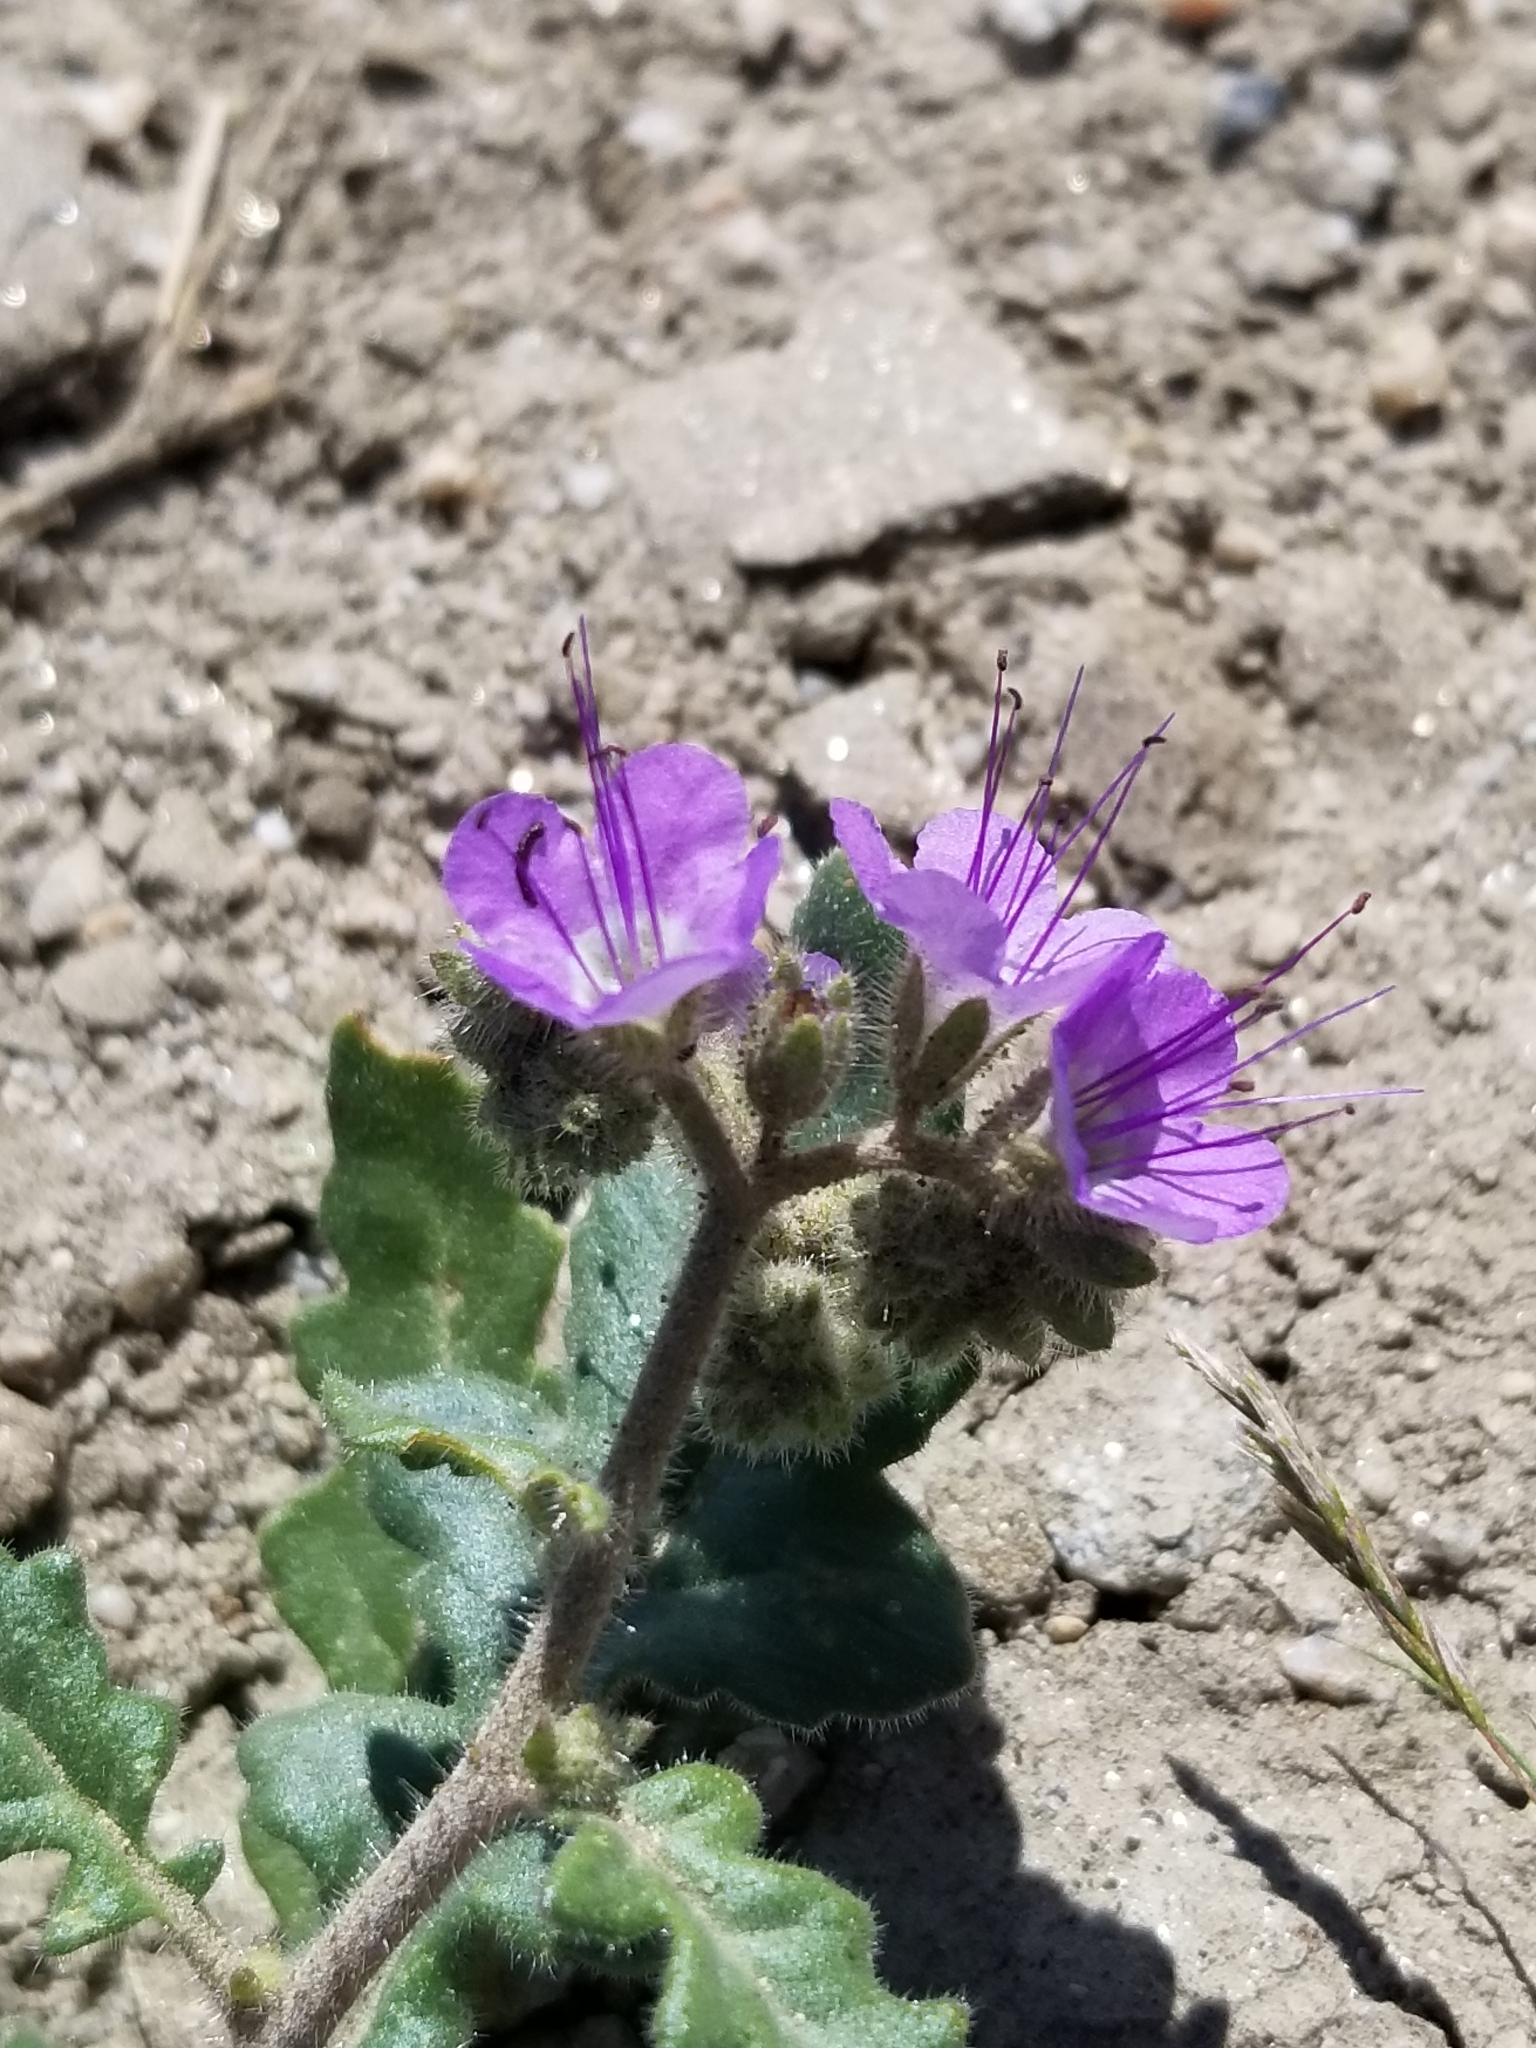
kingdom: Plantae
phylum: Tracheophyta
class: Magnoliopsida
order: Boraginales
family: Hydrophyllaceae
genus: Phacelia
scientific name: Phacelia crenulata
